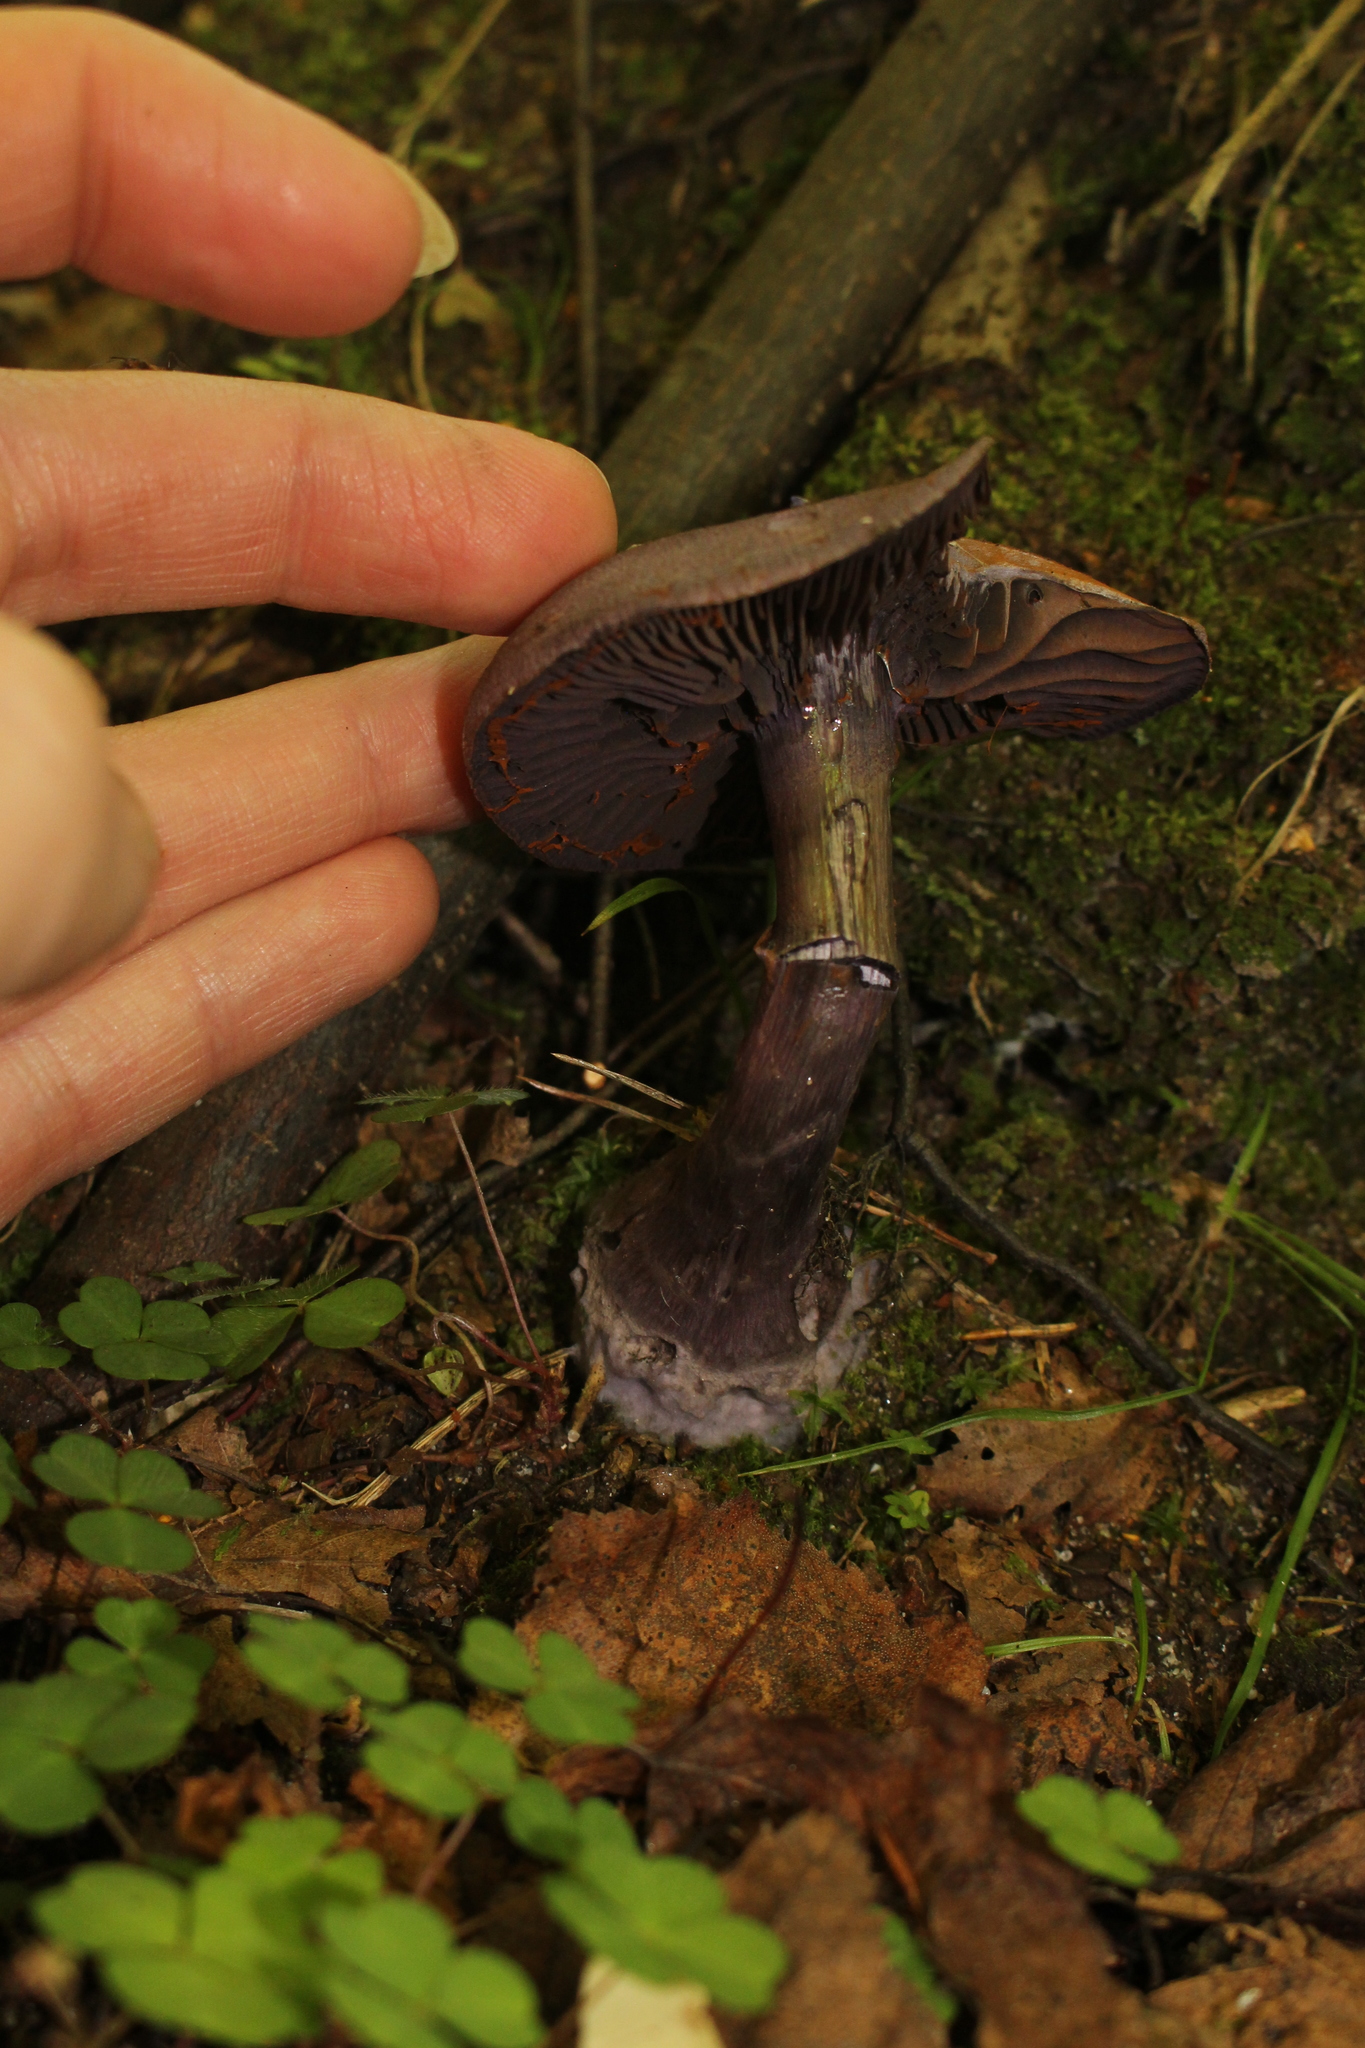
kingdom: Fungi
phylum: Basidiomycota
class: Agaricomycetes
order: Agaricales
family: Cortinariaceae
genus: Cortinarius
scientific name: Cortinarius violaceus
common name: Violet webcap
